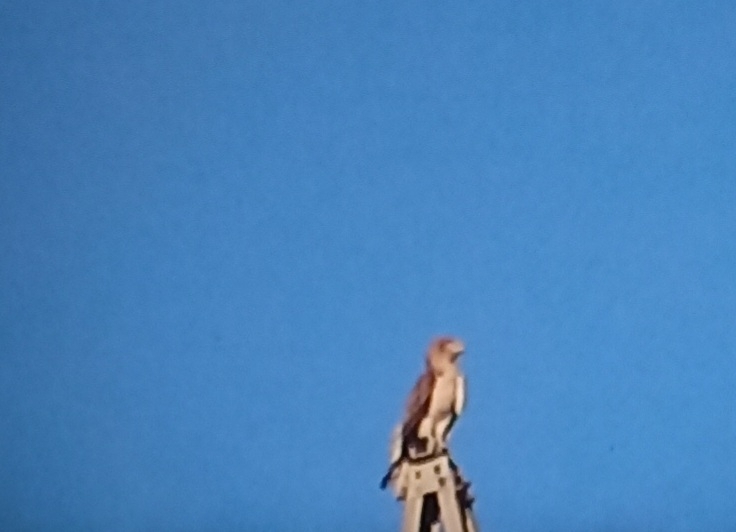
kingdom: Animalia
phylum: Chordata
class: Aves
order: Accipitriformes
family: Accipitridae
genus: Circaetus
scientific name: Circaetus gallicus
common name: Short-toed snake eagle
